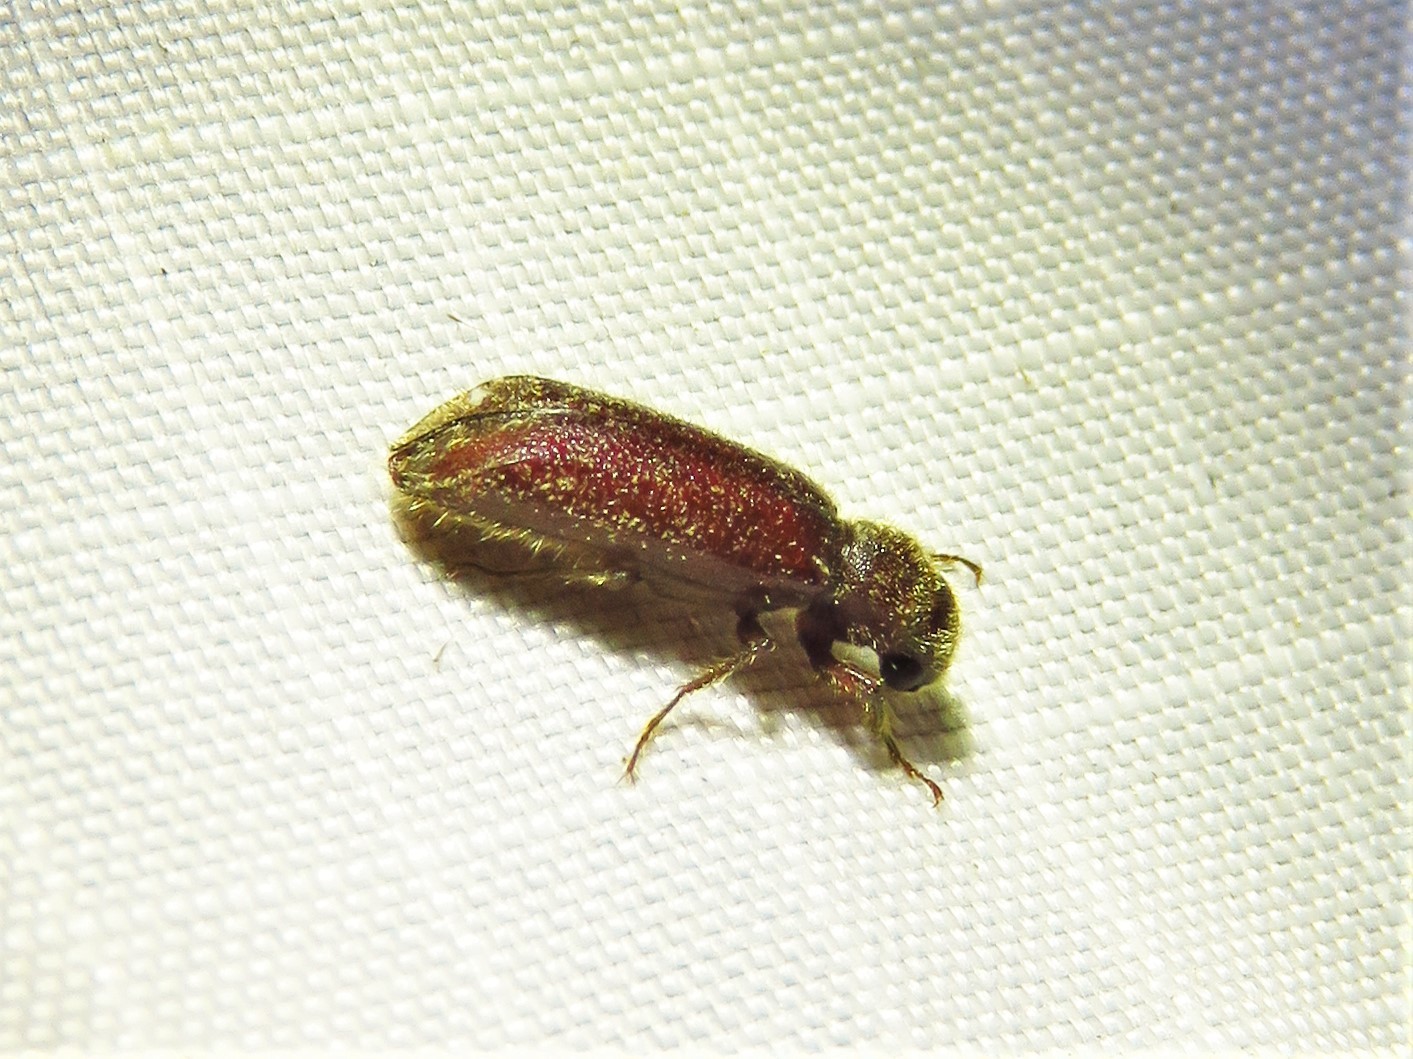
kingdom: Animalia
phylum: Arthropoda
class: Insecta
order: Coleoptera
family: Bostrichidae
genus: Melalgus
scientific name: Melalgus plicatus
